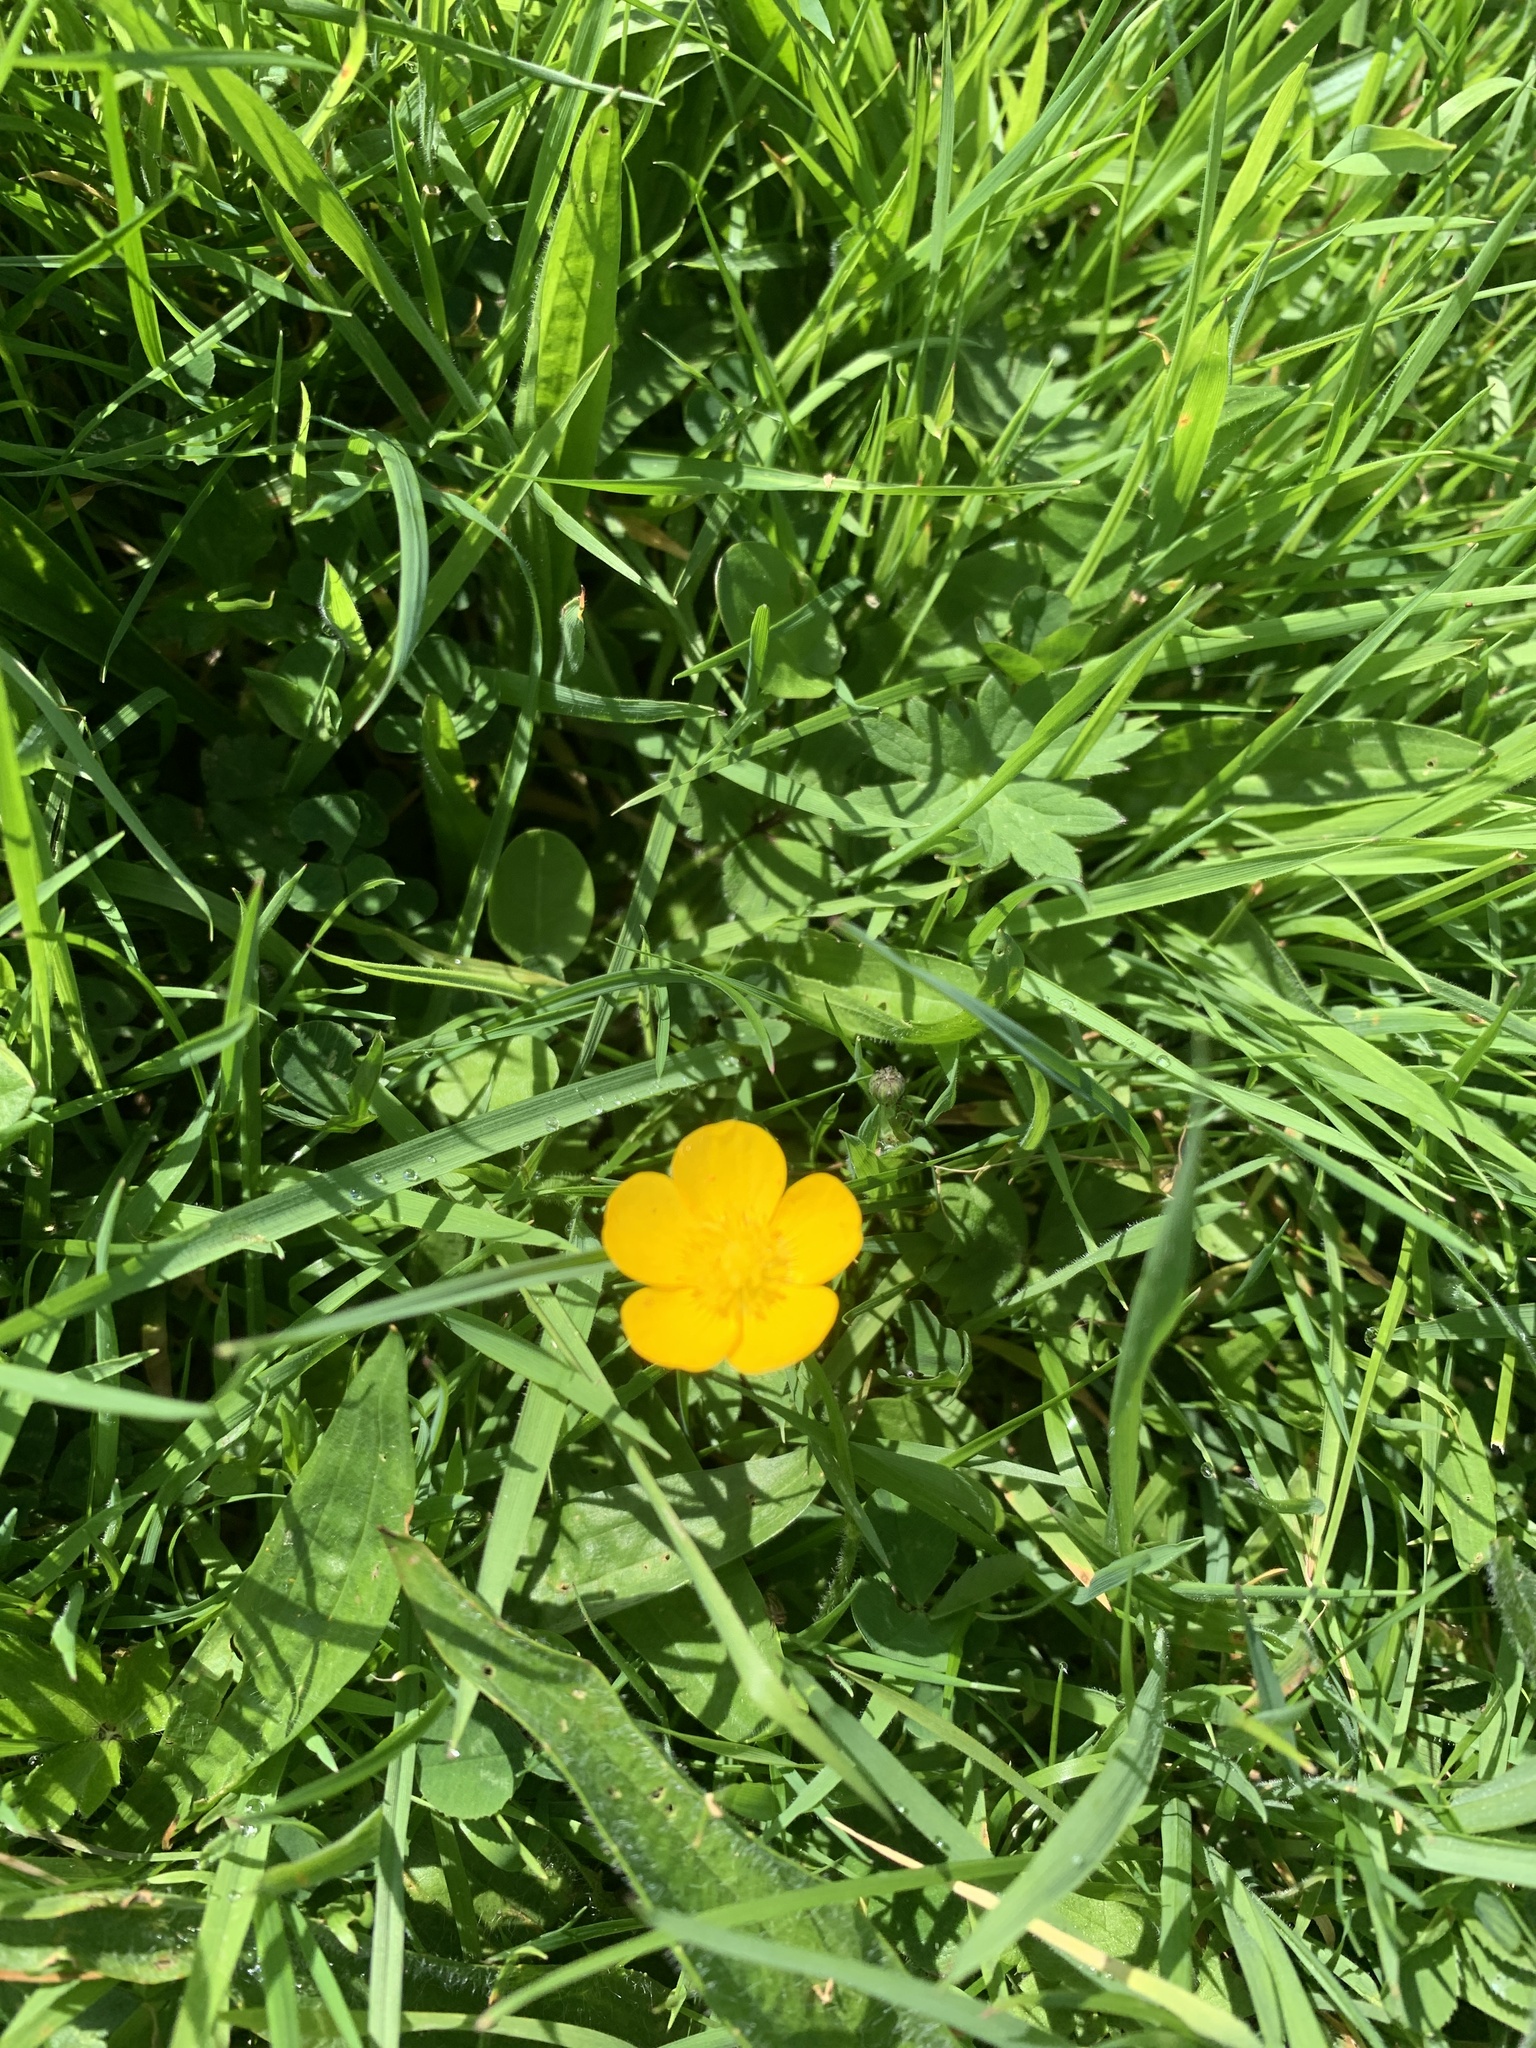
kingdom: Plantae
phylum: Tracheophyta
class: Magnoliopsida
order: Ranunculales
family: Ranunculaceae
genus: Ranunculus
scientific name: Ranunculus repens
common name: Creeping buttercup
